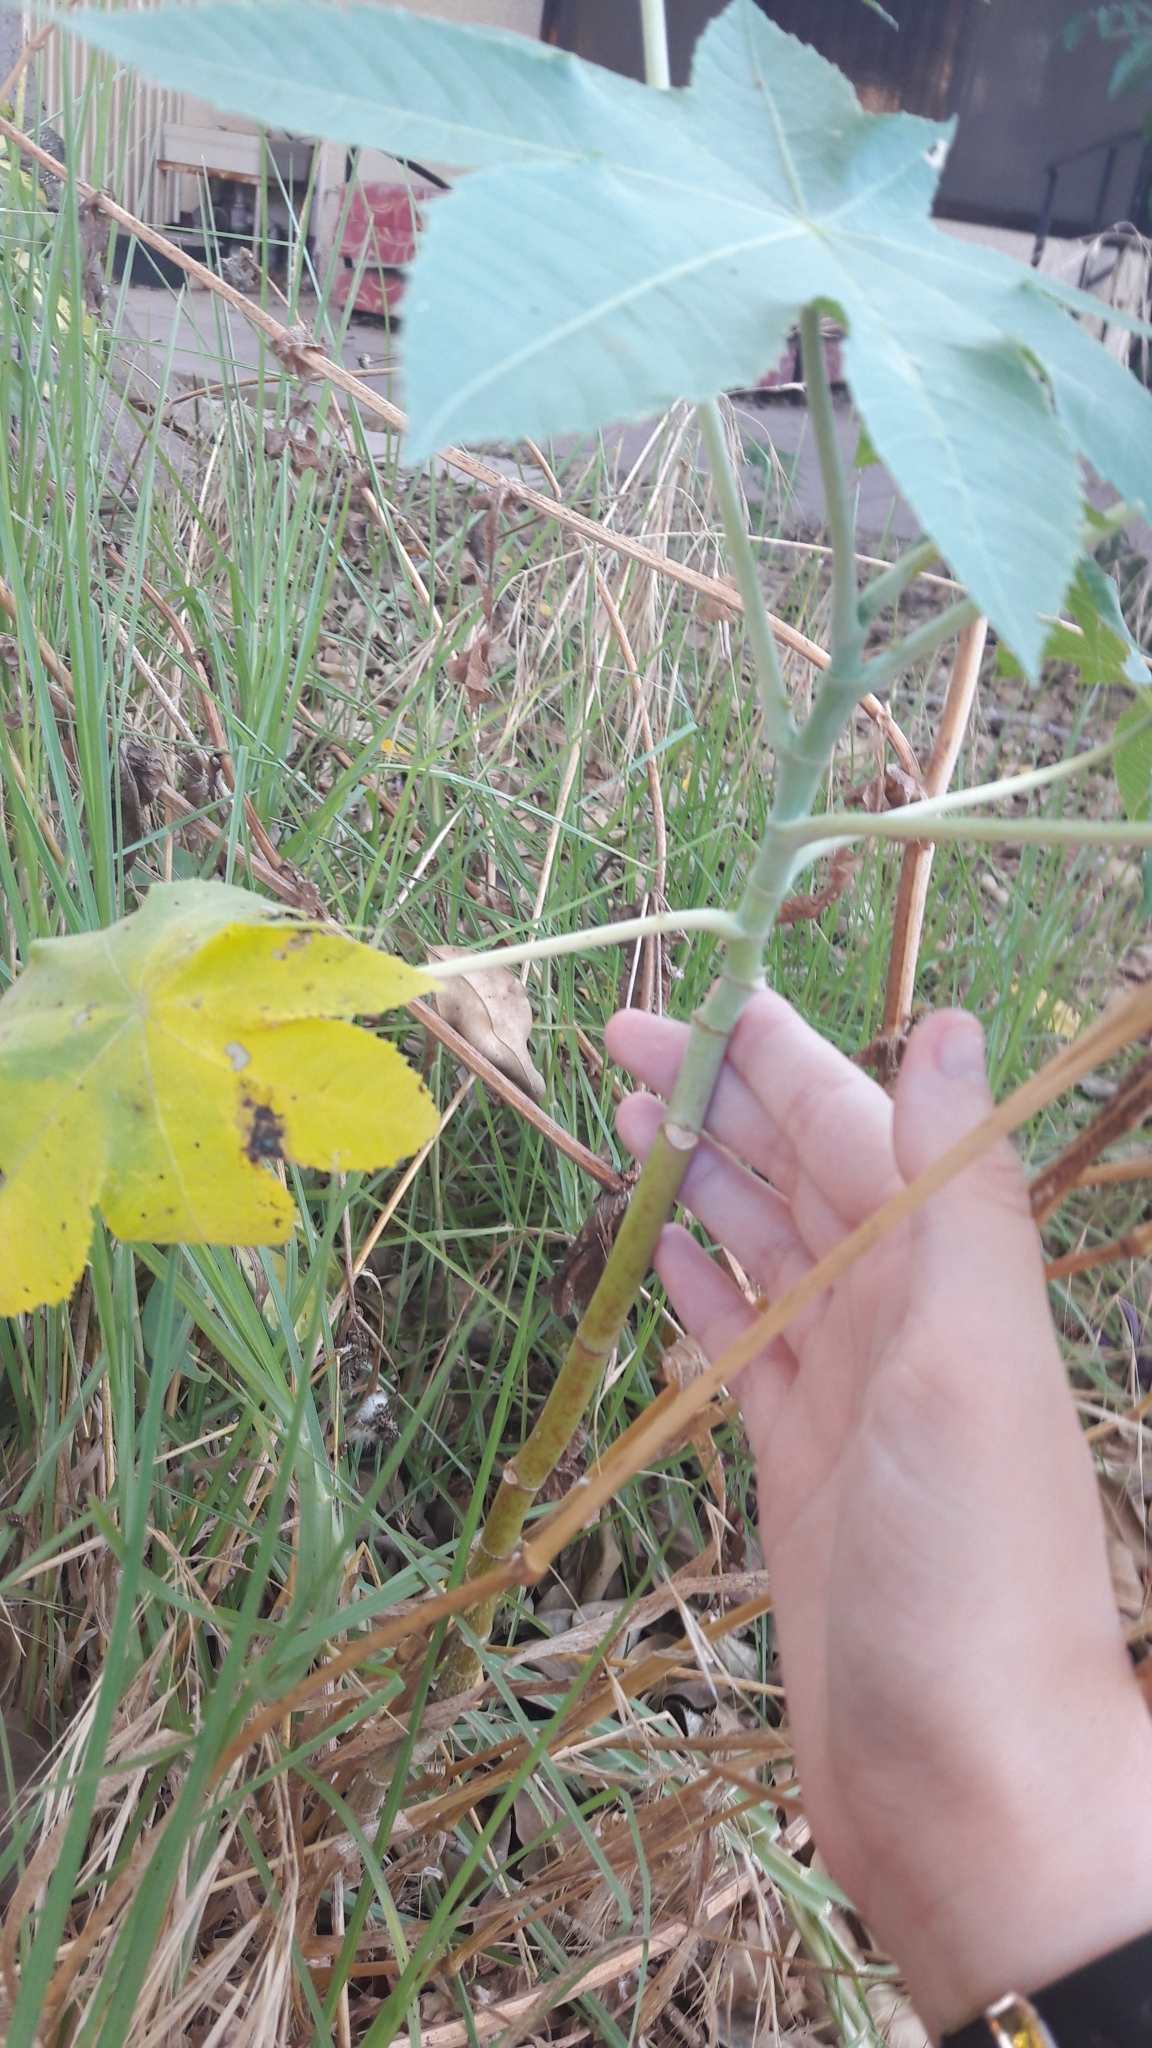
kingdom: Plantae
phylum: Tracheophyta
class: Magnoliopsida
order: Malpighiales
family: Euphorbiaceae
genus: Ricinus
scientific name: Ricinus communis
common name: Castor-oil-plant
